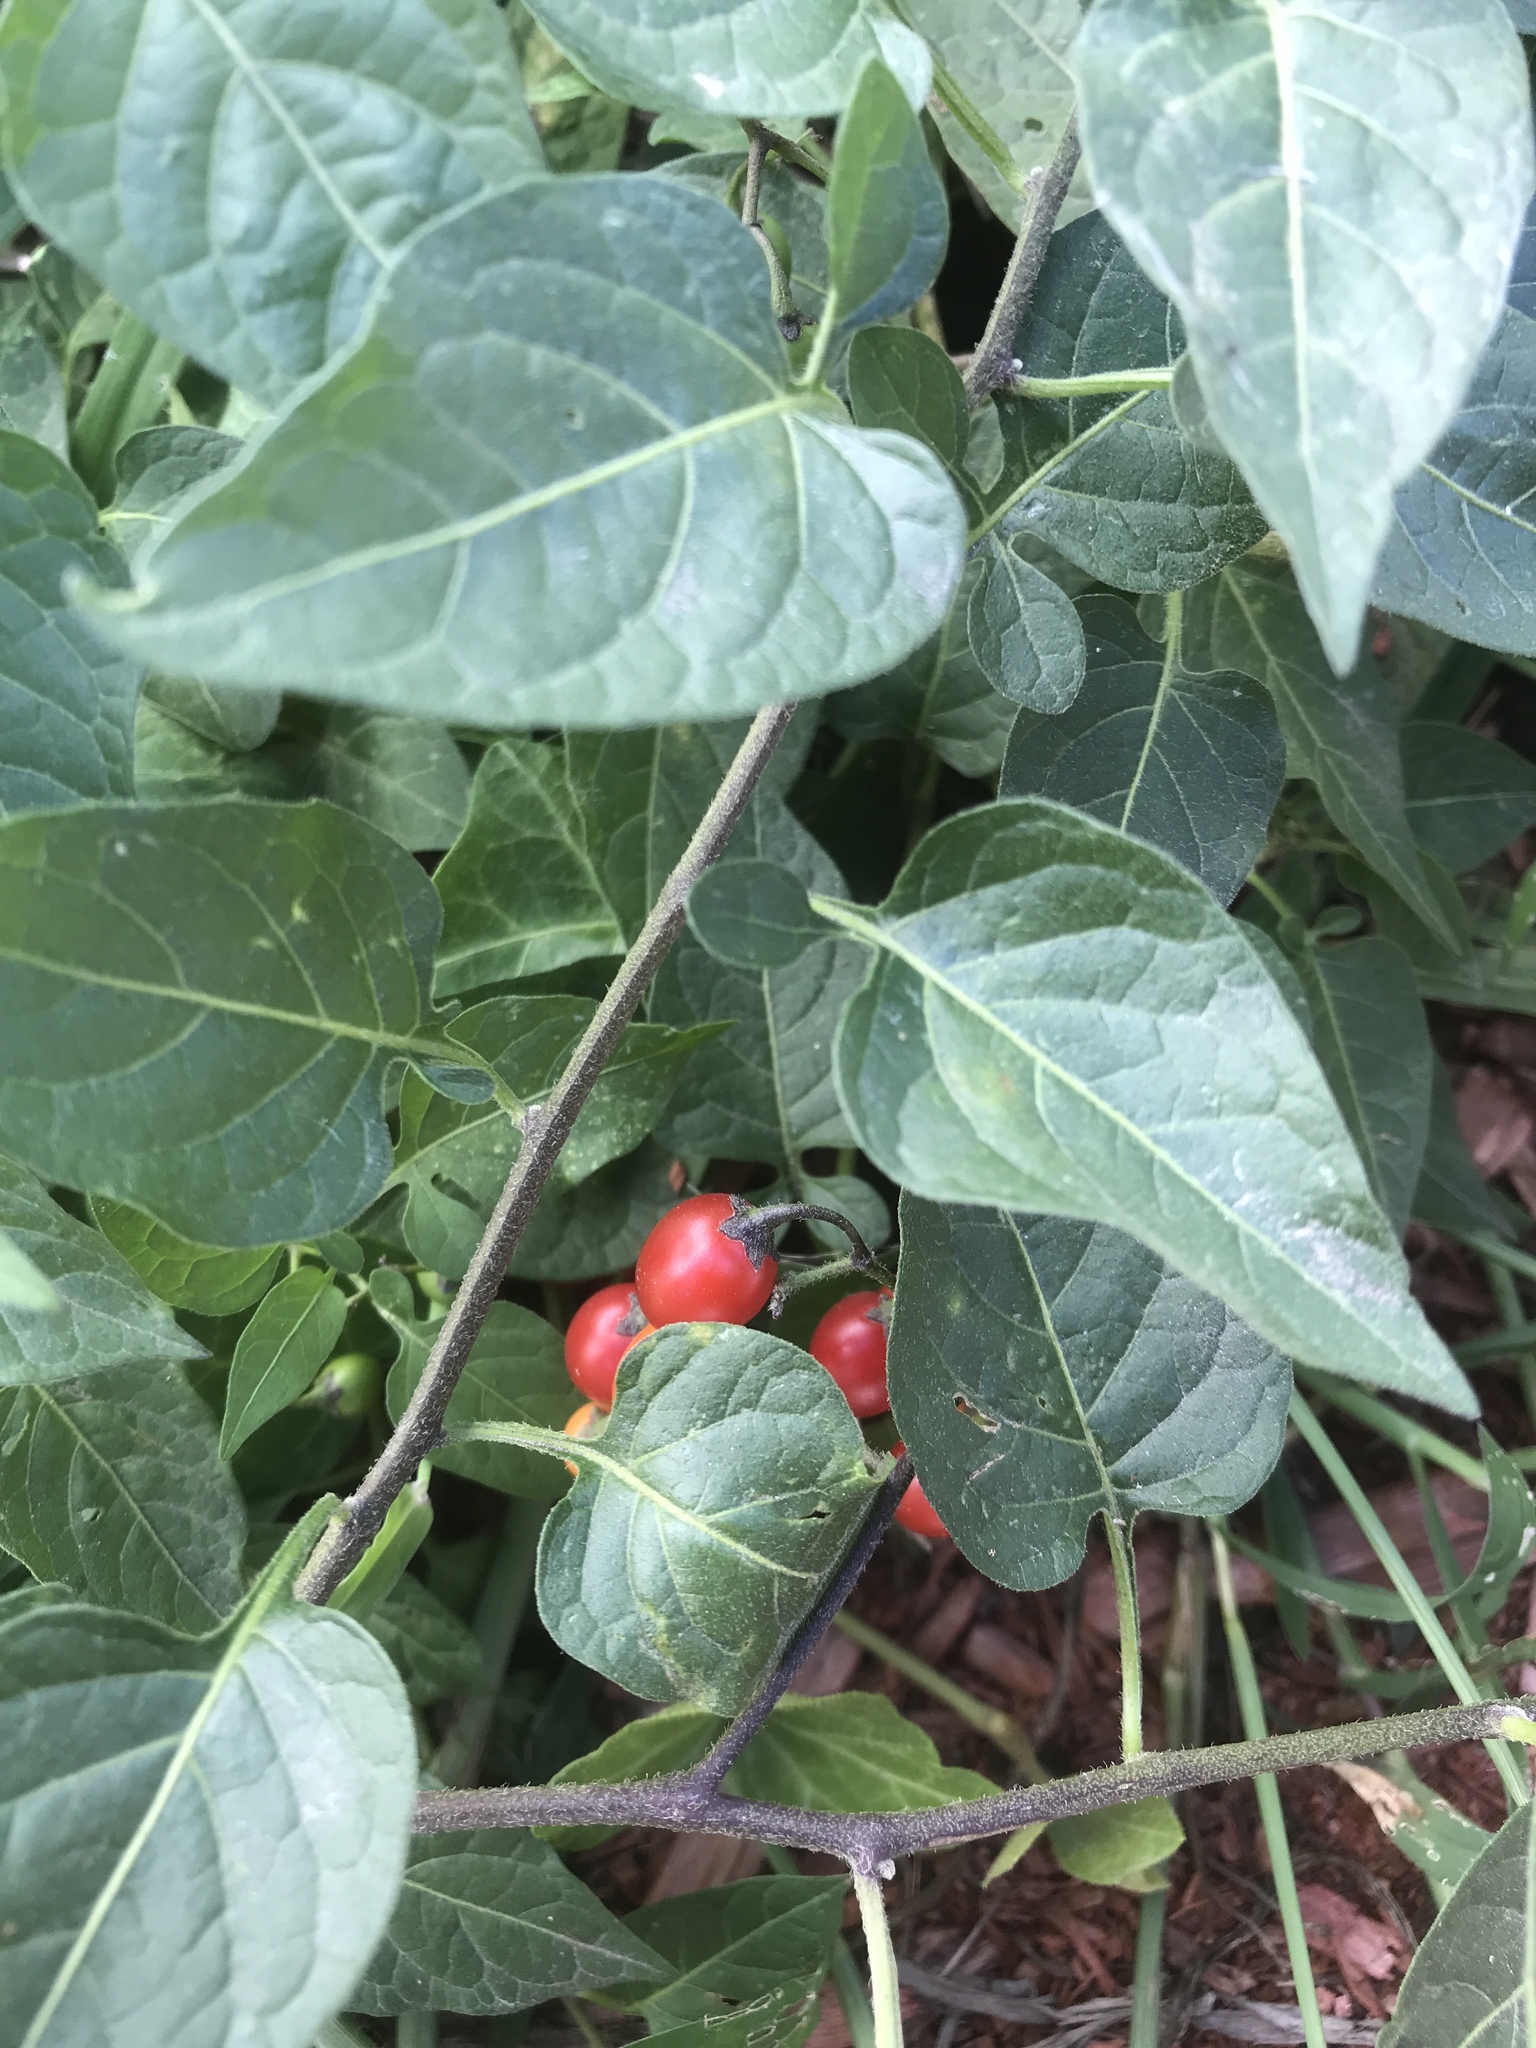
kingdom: Plantae
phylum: Tracheophyta
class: Magnoliopsida
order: Solanales
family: Solanaceae
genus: Solanum
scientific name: Solanum dulcamara
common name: Climbing nightshade
